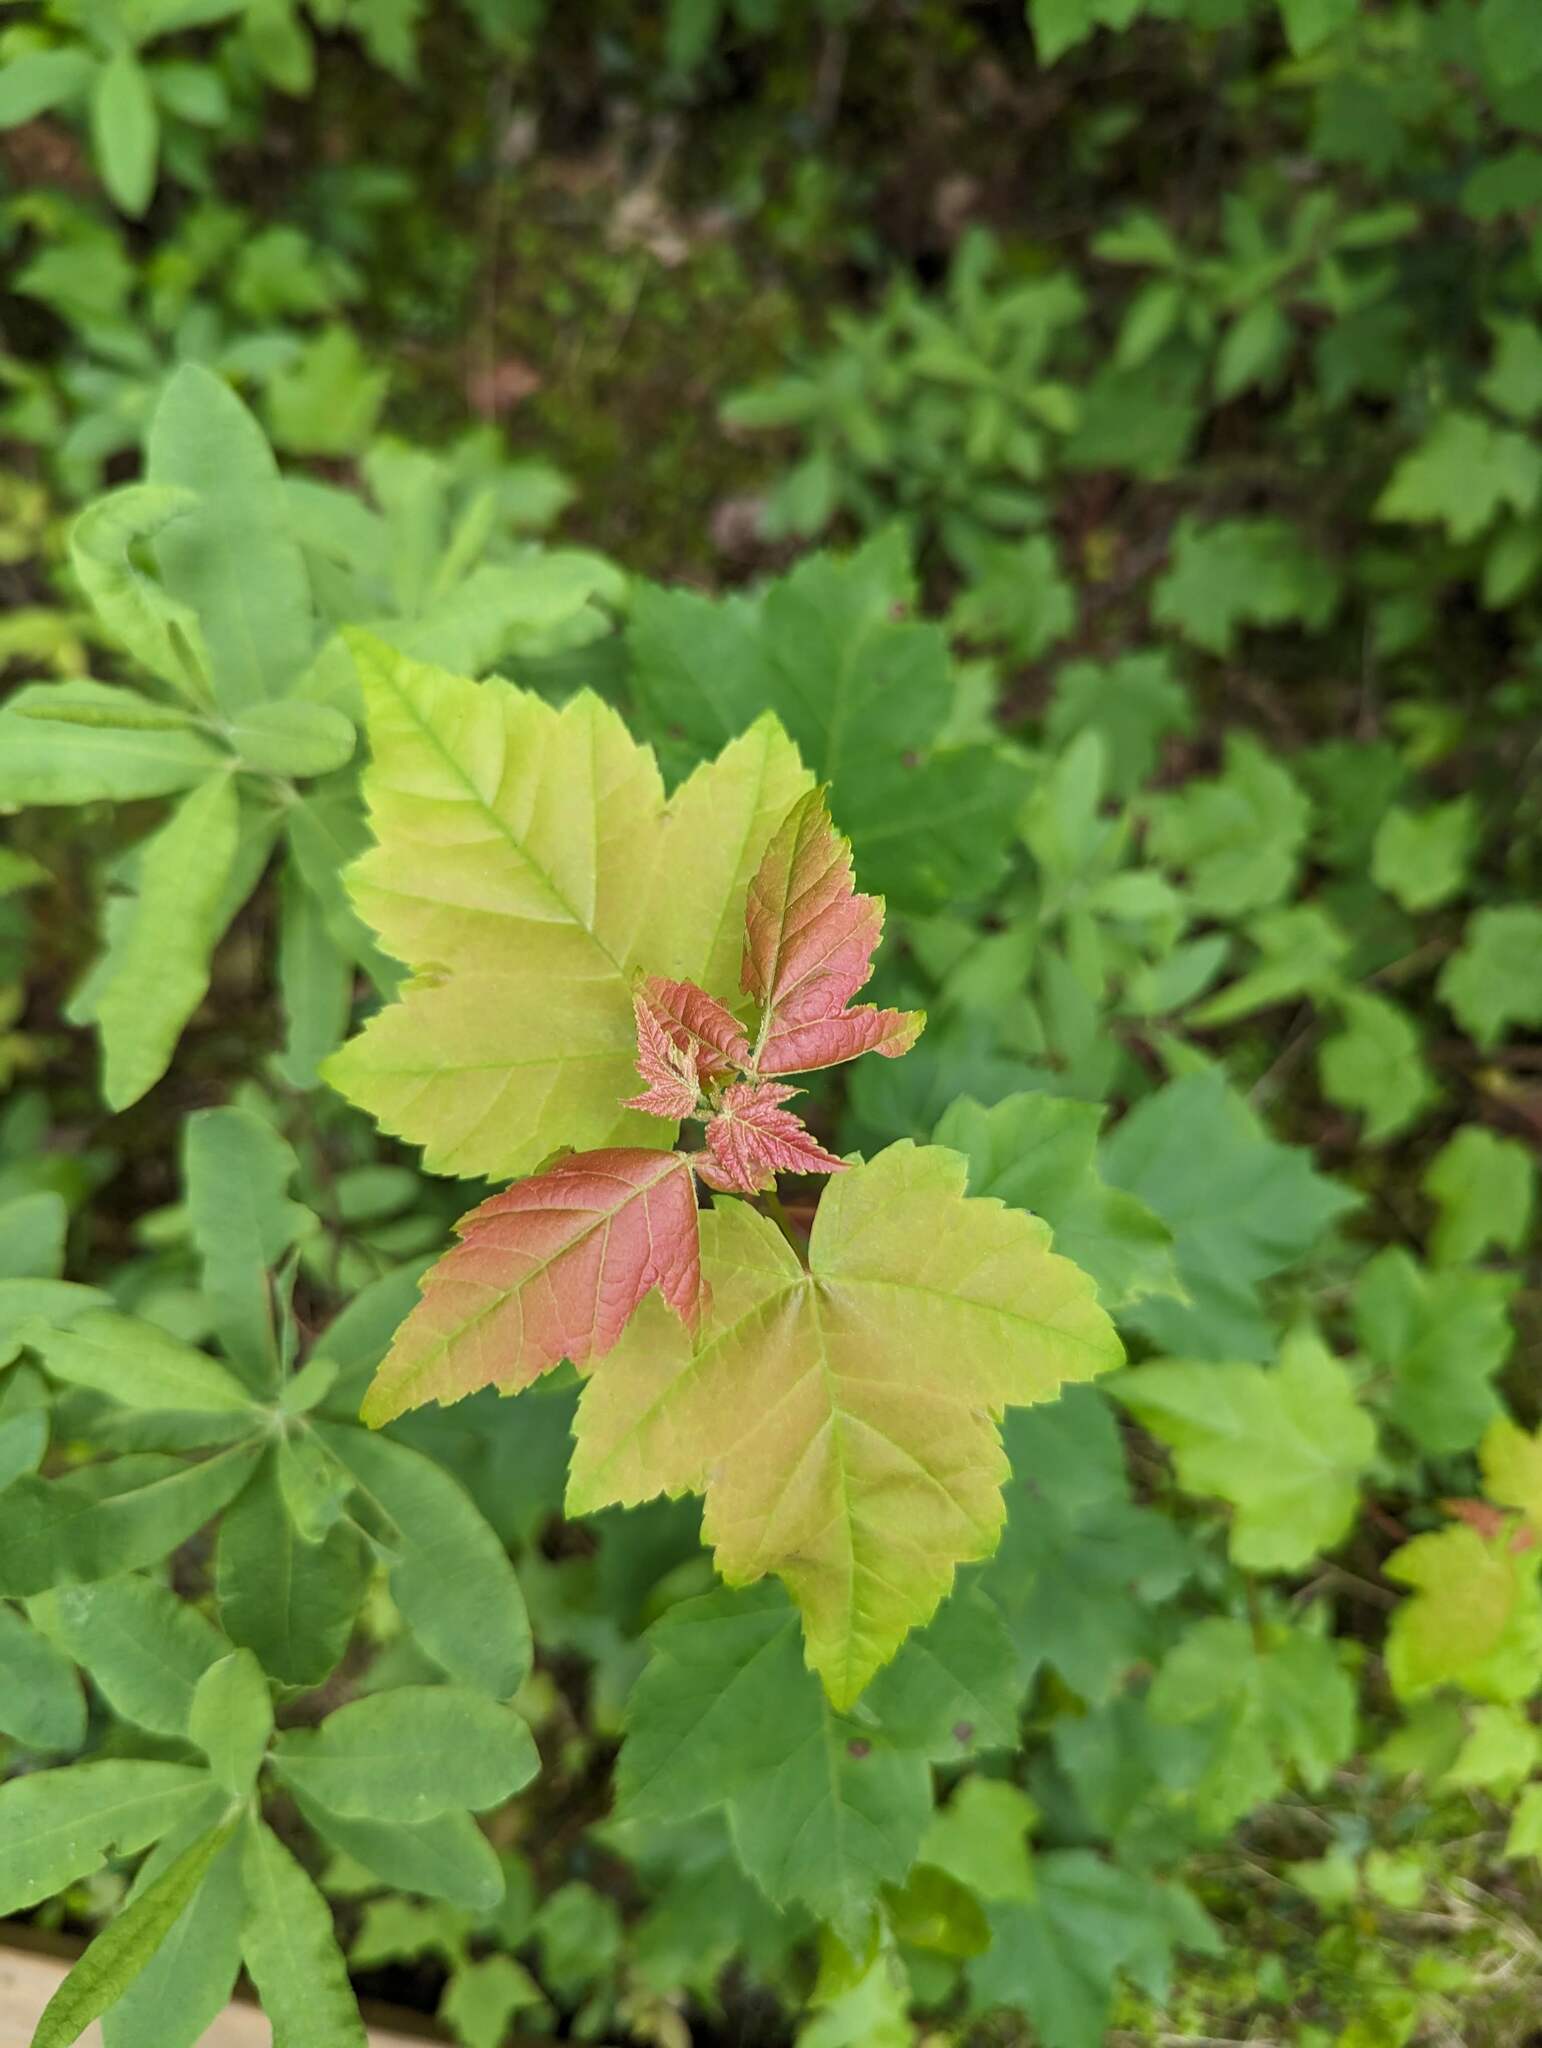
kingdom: Plantae
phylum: Tracheophyta
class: Magnoliopsida
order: Sapindales
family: Sapindaceae
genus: Acer
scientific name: Acer rubrum
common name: Red maple
